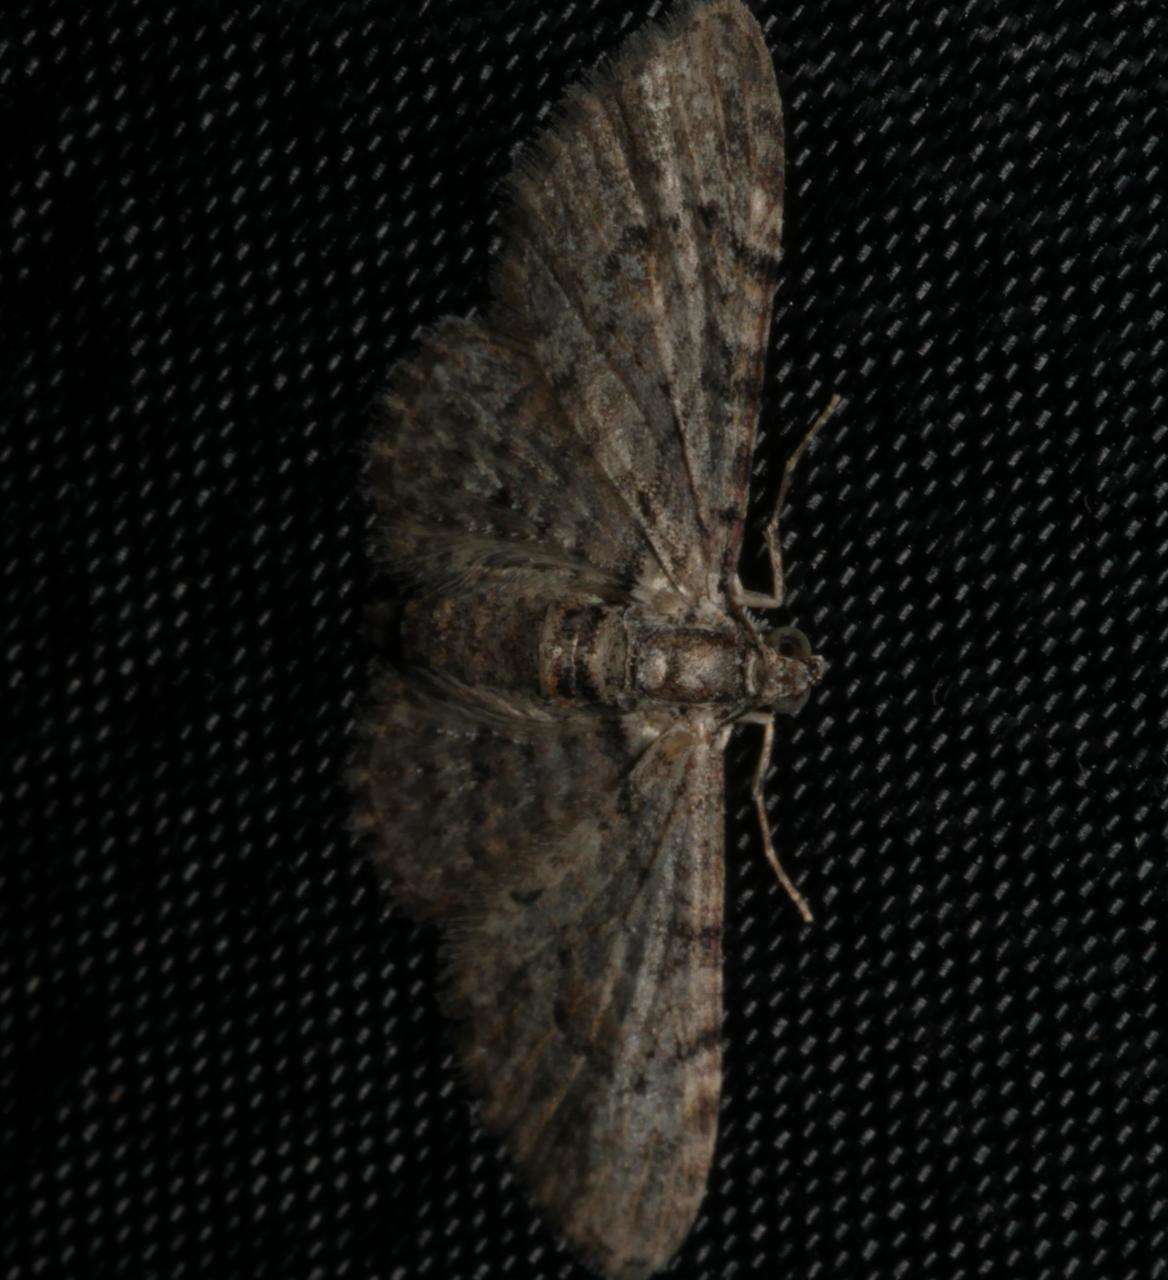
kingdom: Animalia
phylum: Arthropoda
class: Insecta
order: Lepidoptera
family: Geometridae
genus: Chloroclystis
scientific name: Chloroclystis insigillata
